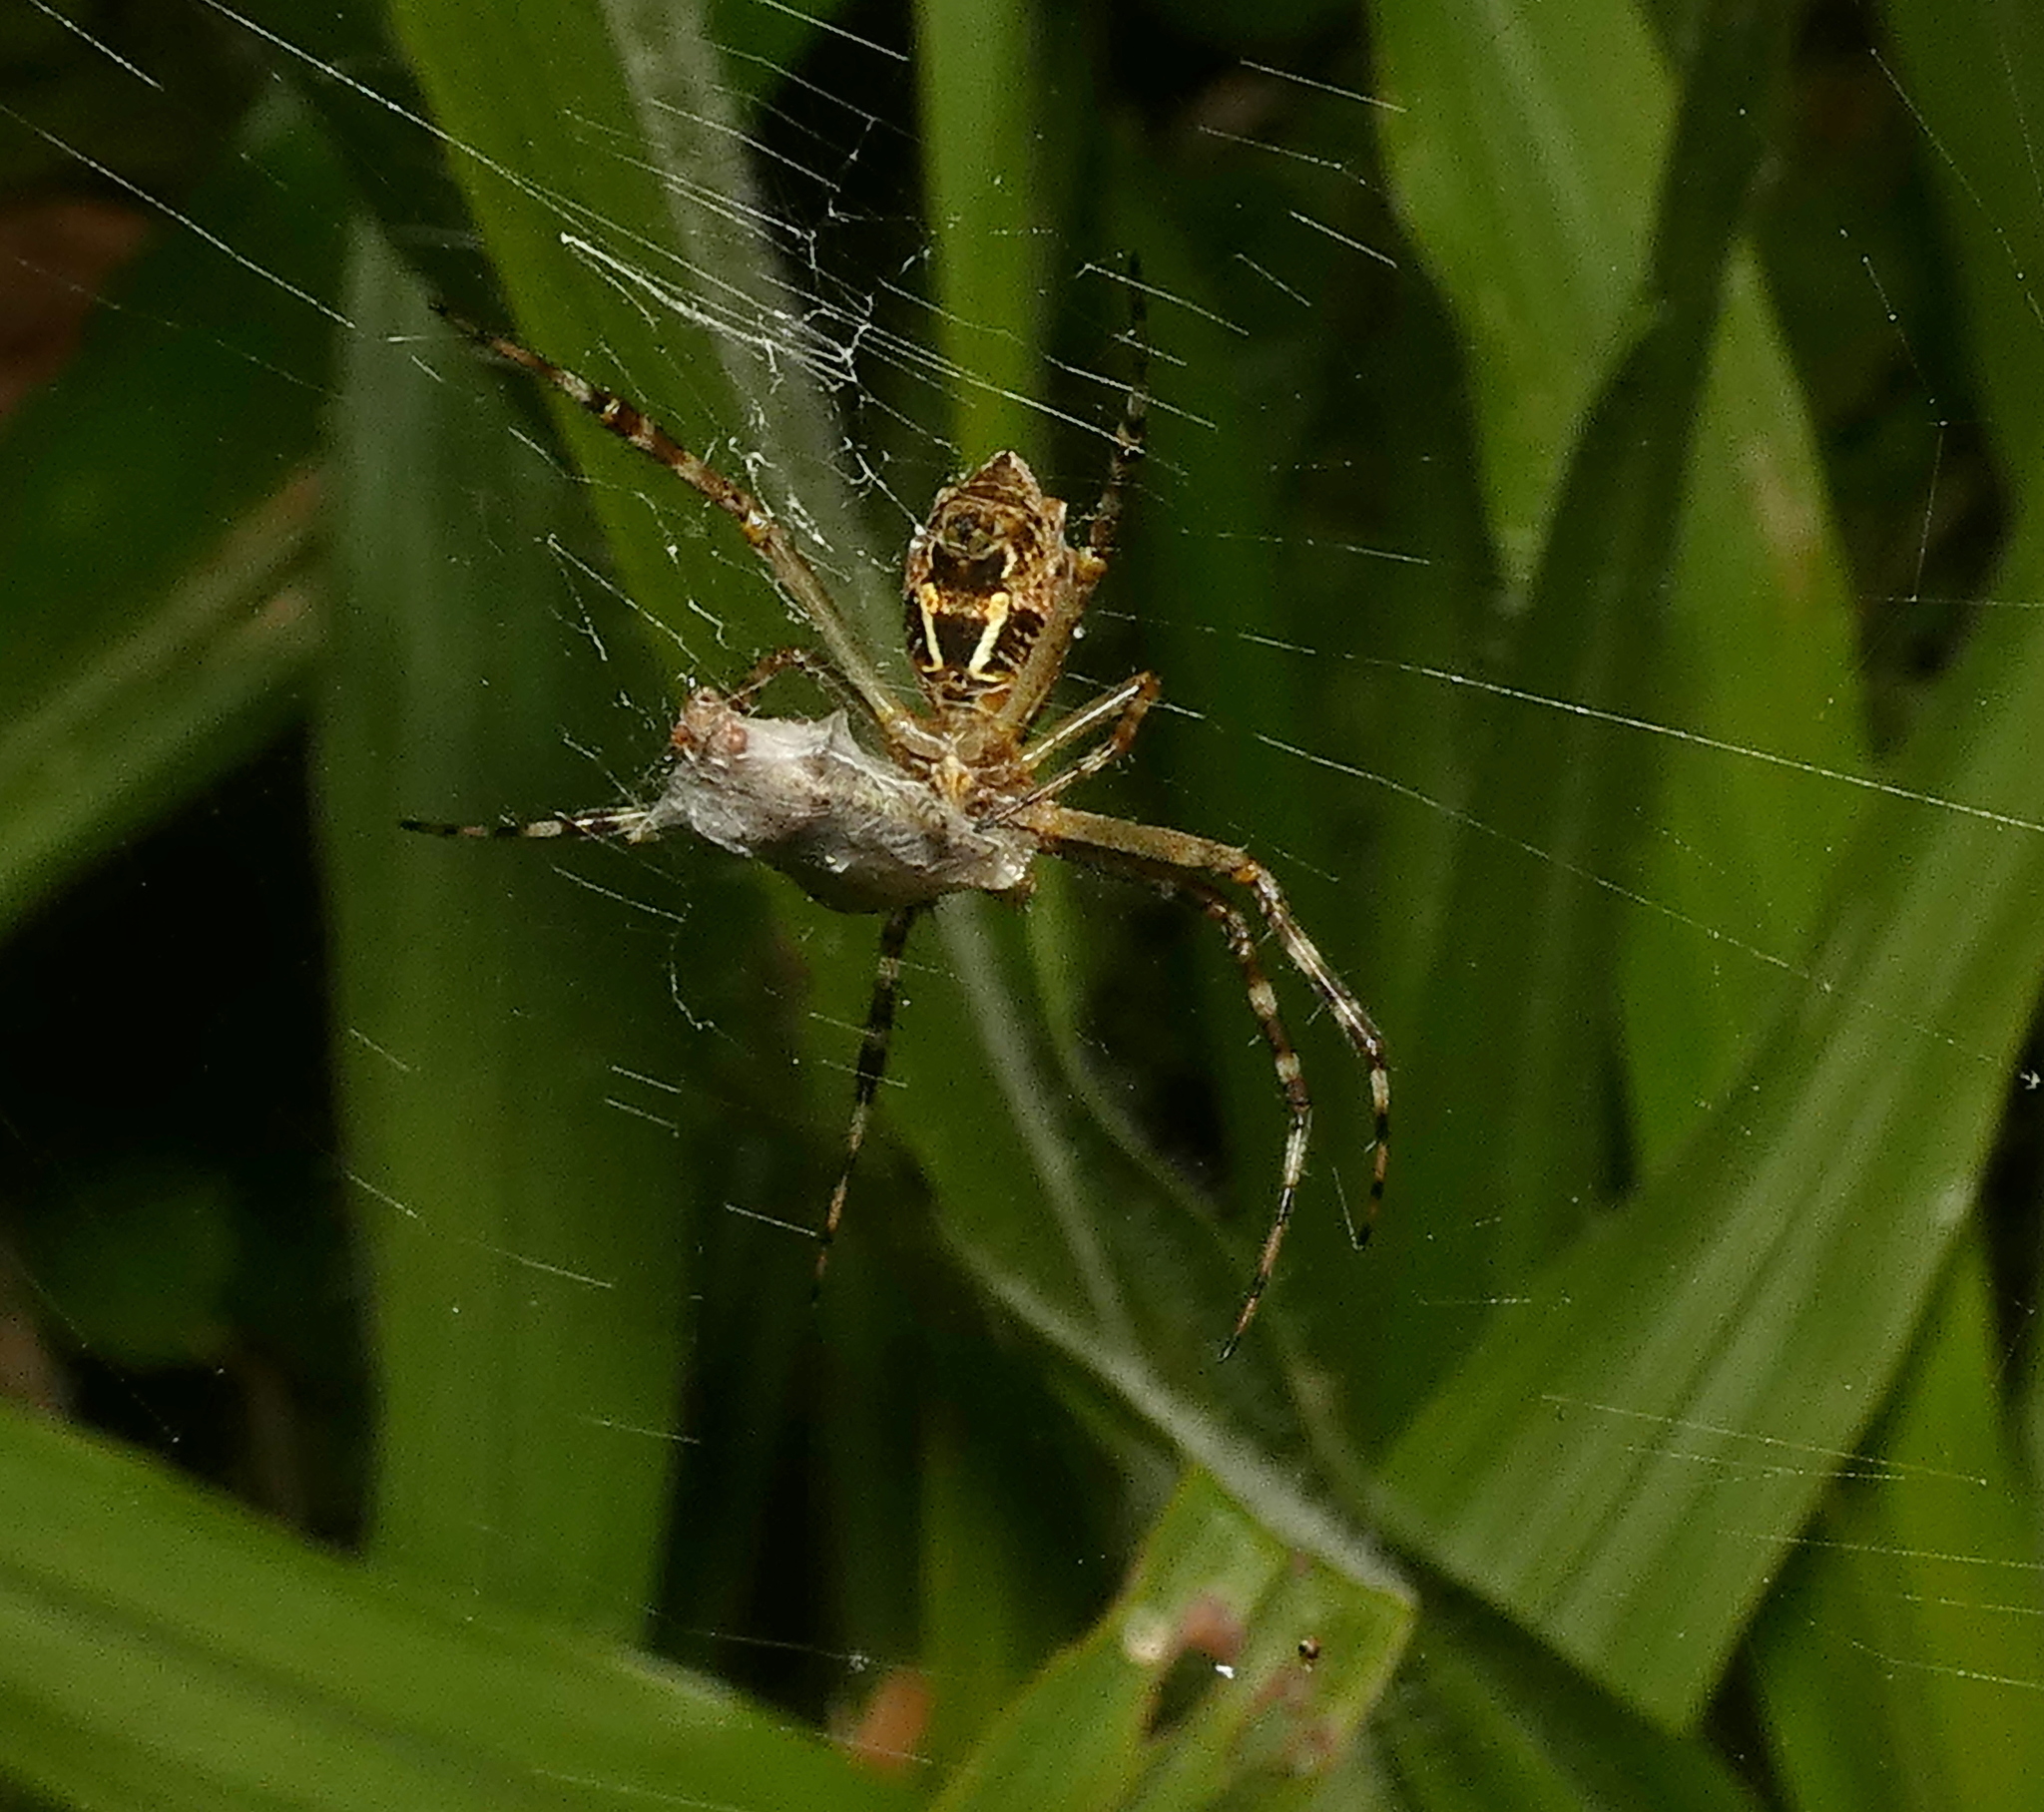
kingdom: Animalia
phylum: Arthropoda
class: Arachnida
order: Araneae
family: Araneidae
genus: Argiope
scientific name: Argiope argentata
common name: Orb weavers
